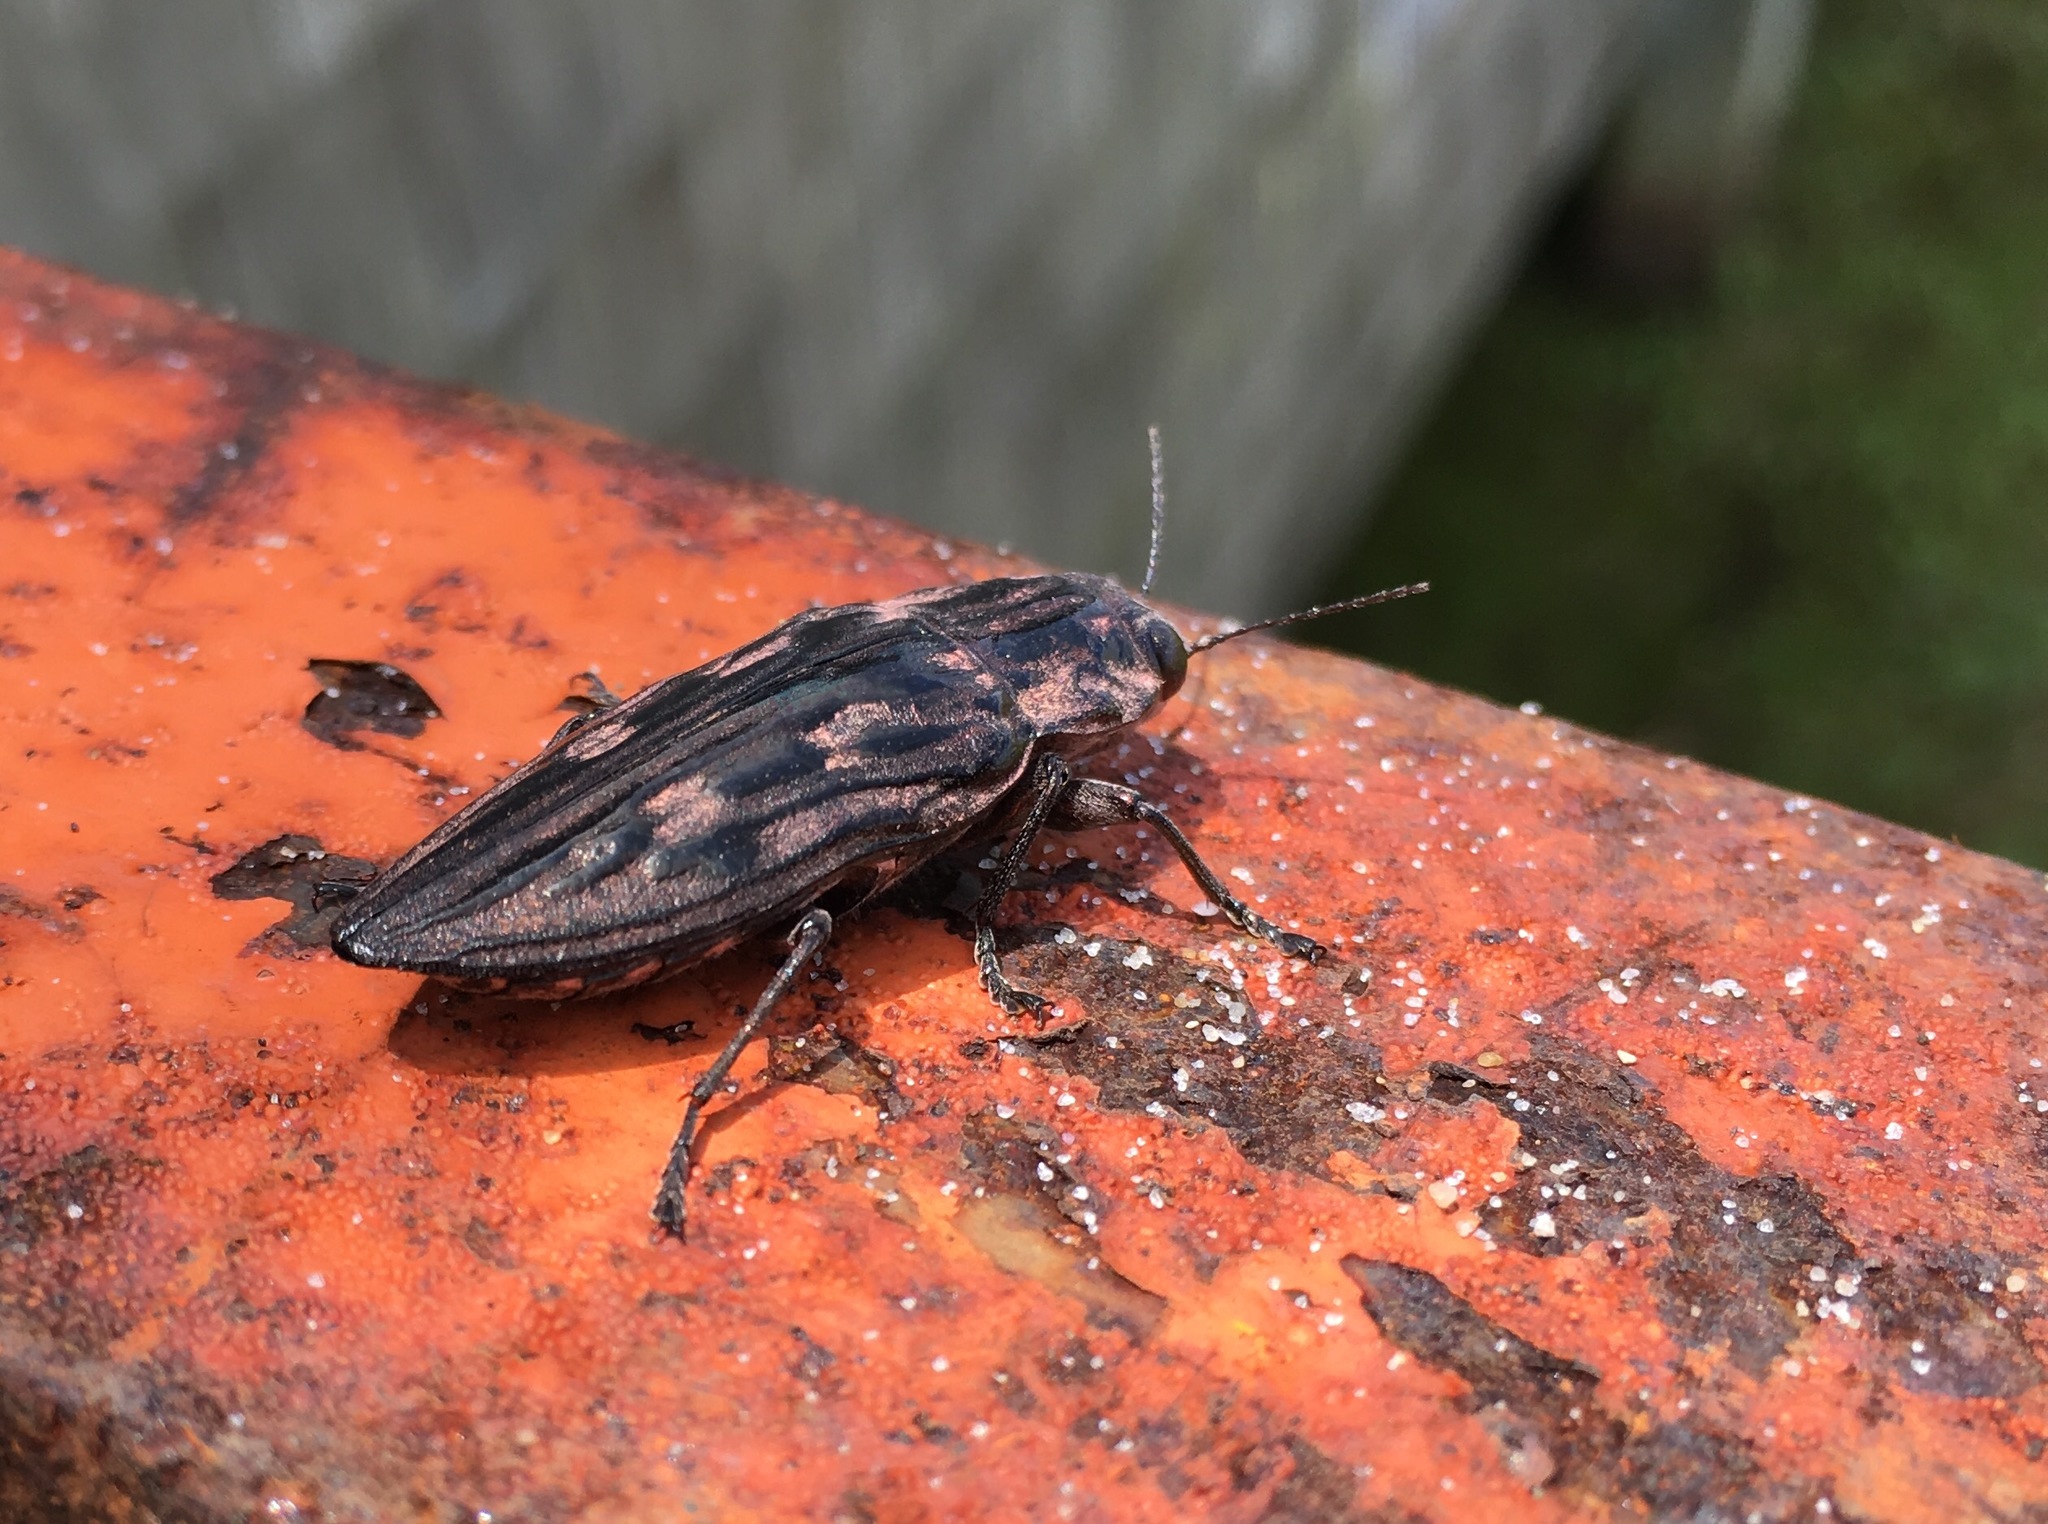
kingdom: Animalia
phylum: Arthropoda
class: Insecta
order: Coleoptera
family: Buprestidae
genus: Chalcophora
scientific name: Chalcophora virginiensis
